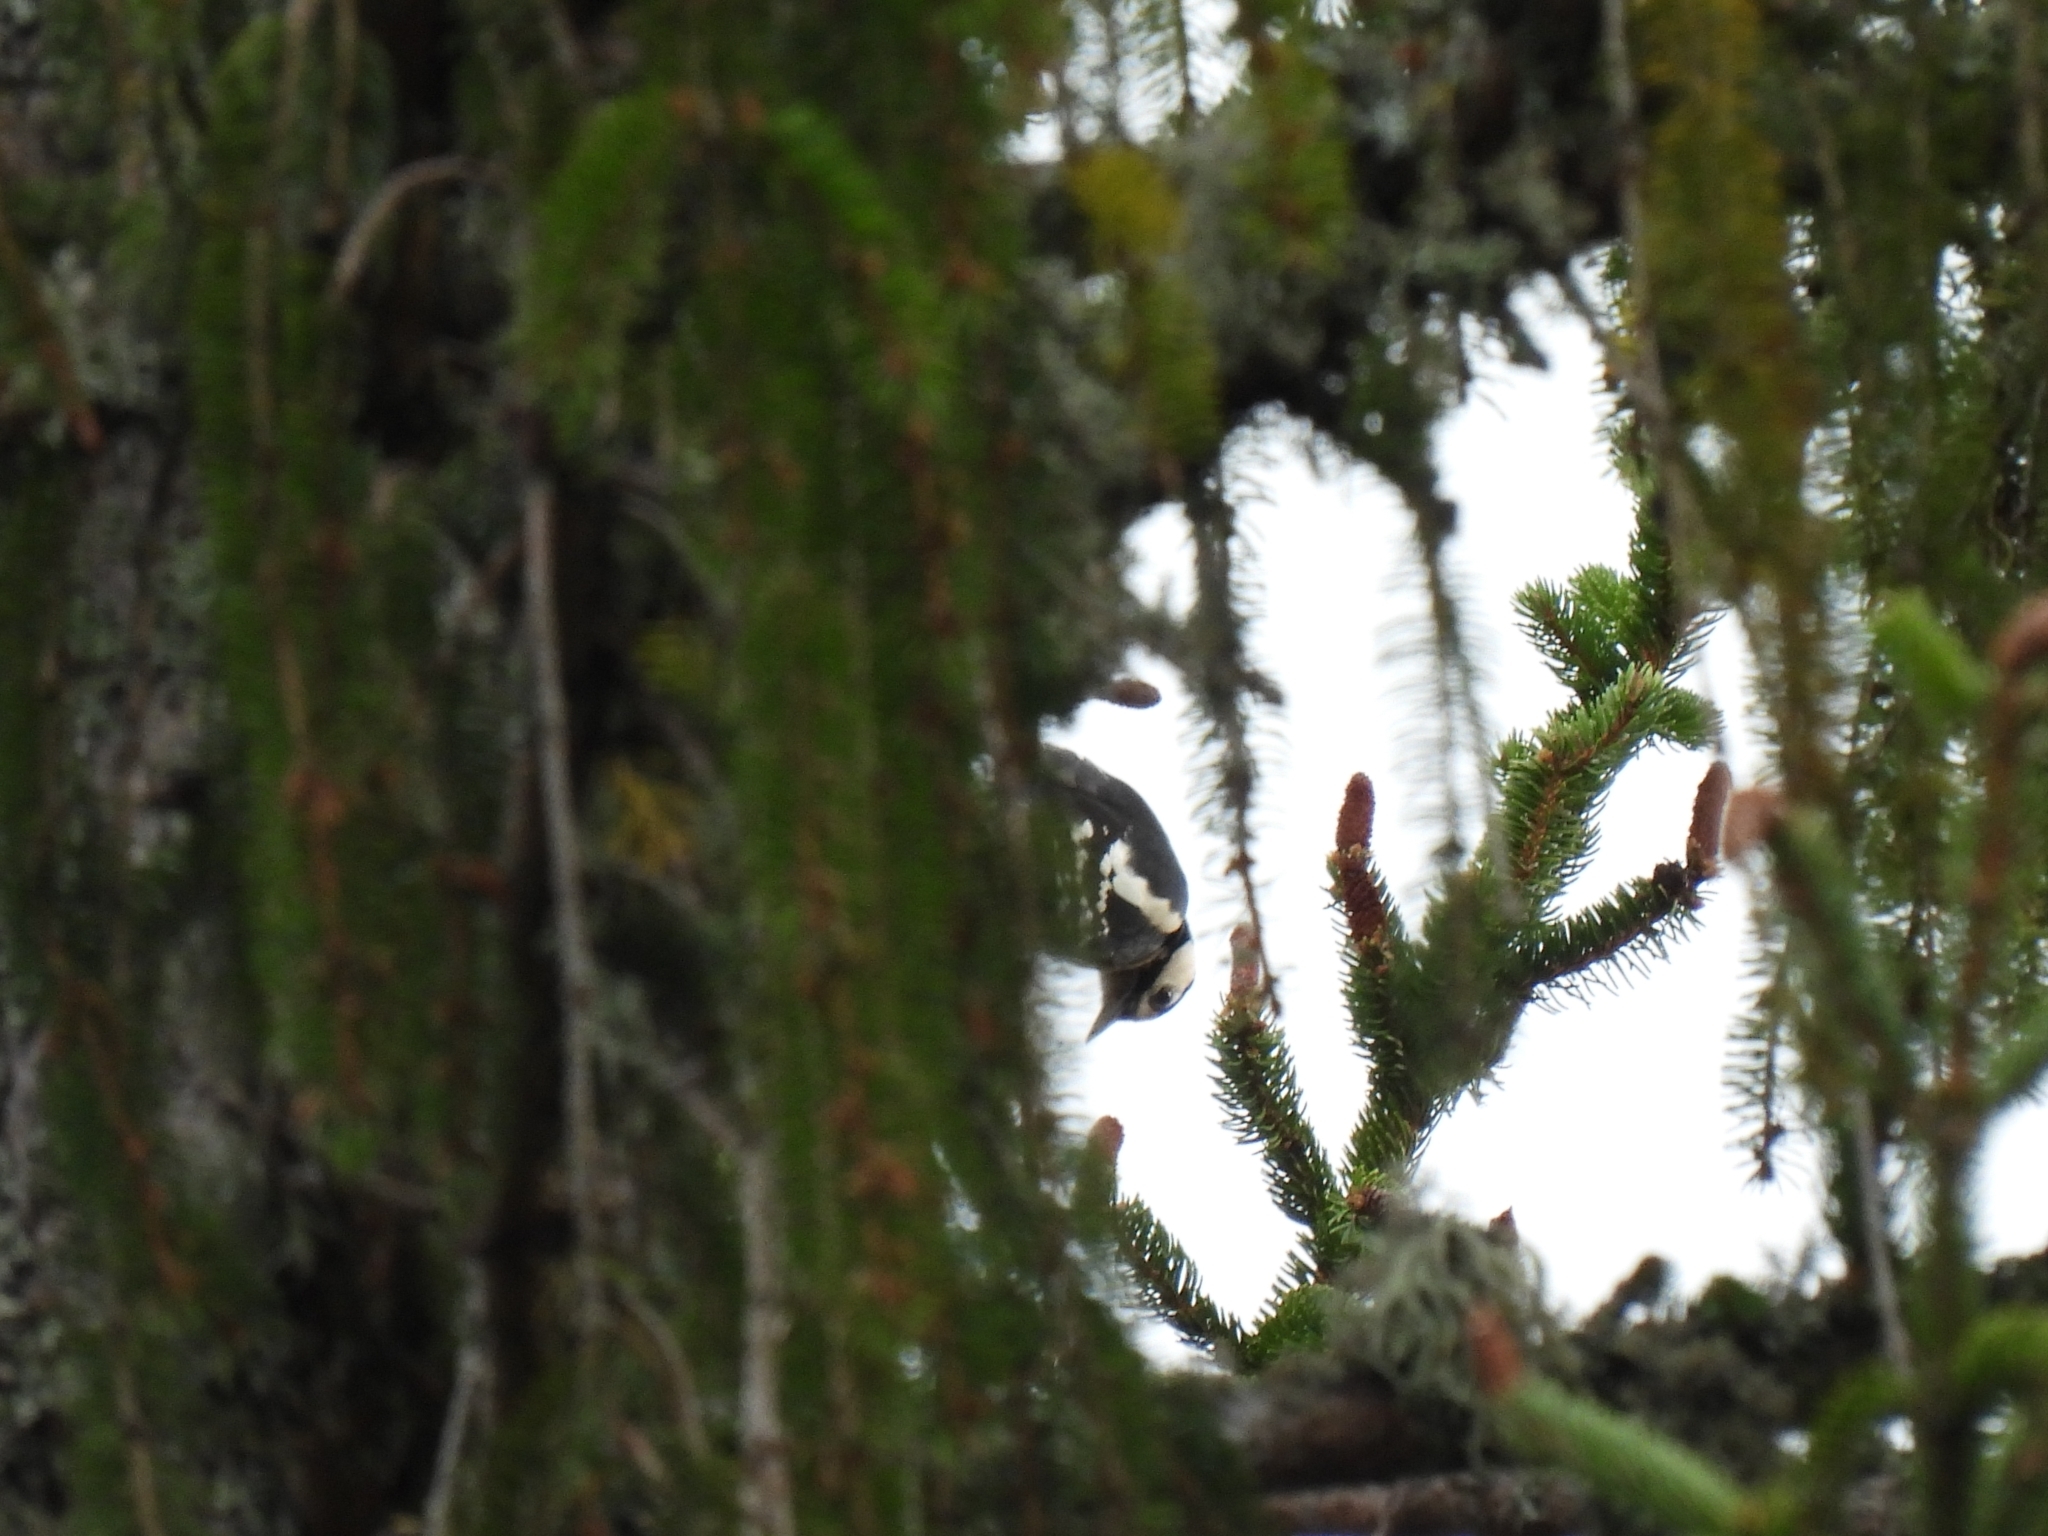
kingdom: Animalia
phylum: Chordata
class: Aves
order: Piciformes
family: Picidae
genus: Dendrocopos
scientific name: Dendrocopos major
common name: Great spotted woodpecker
